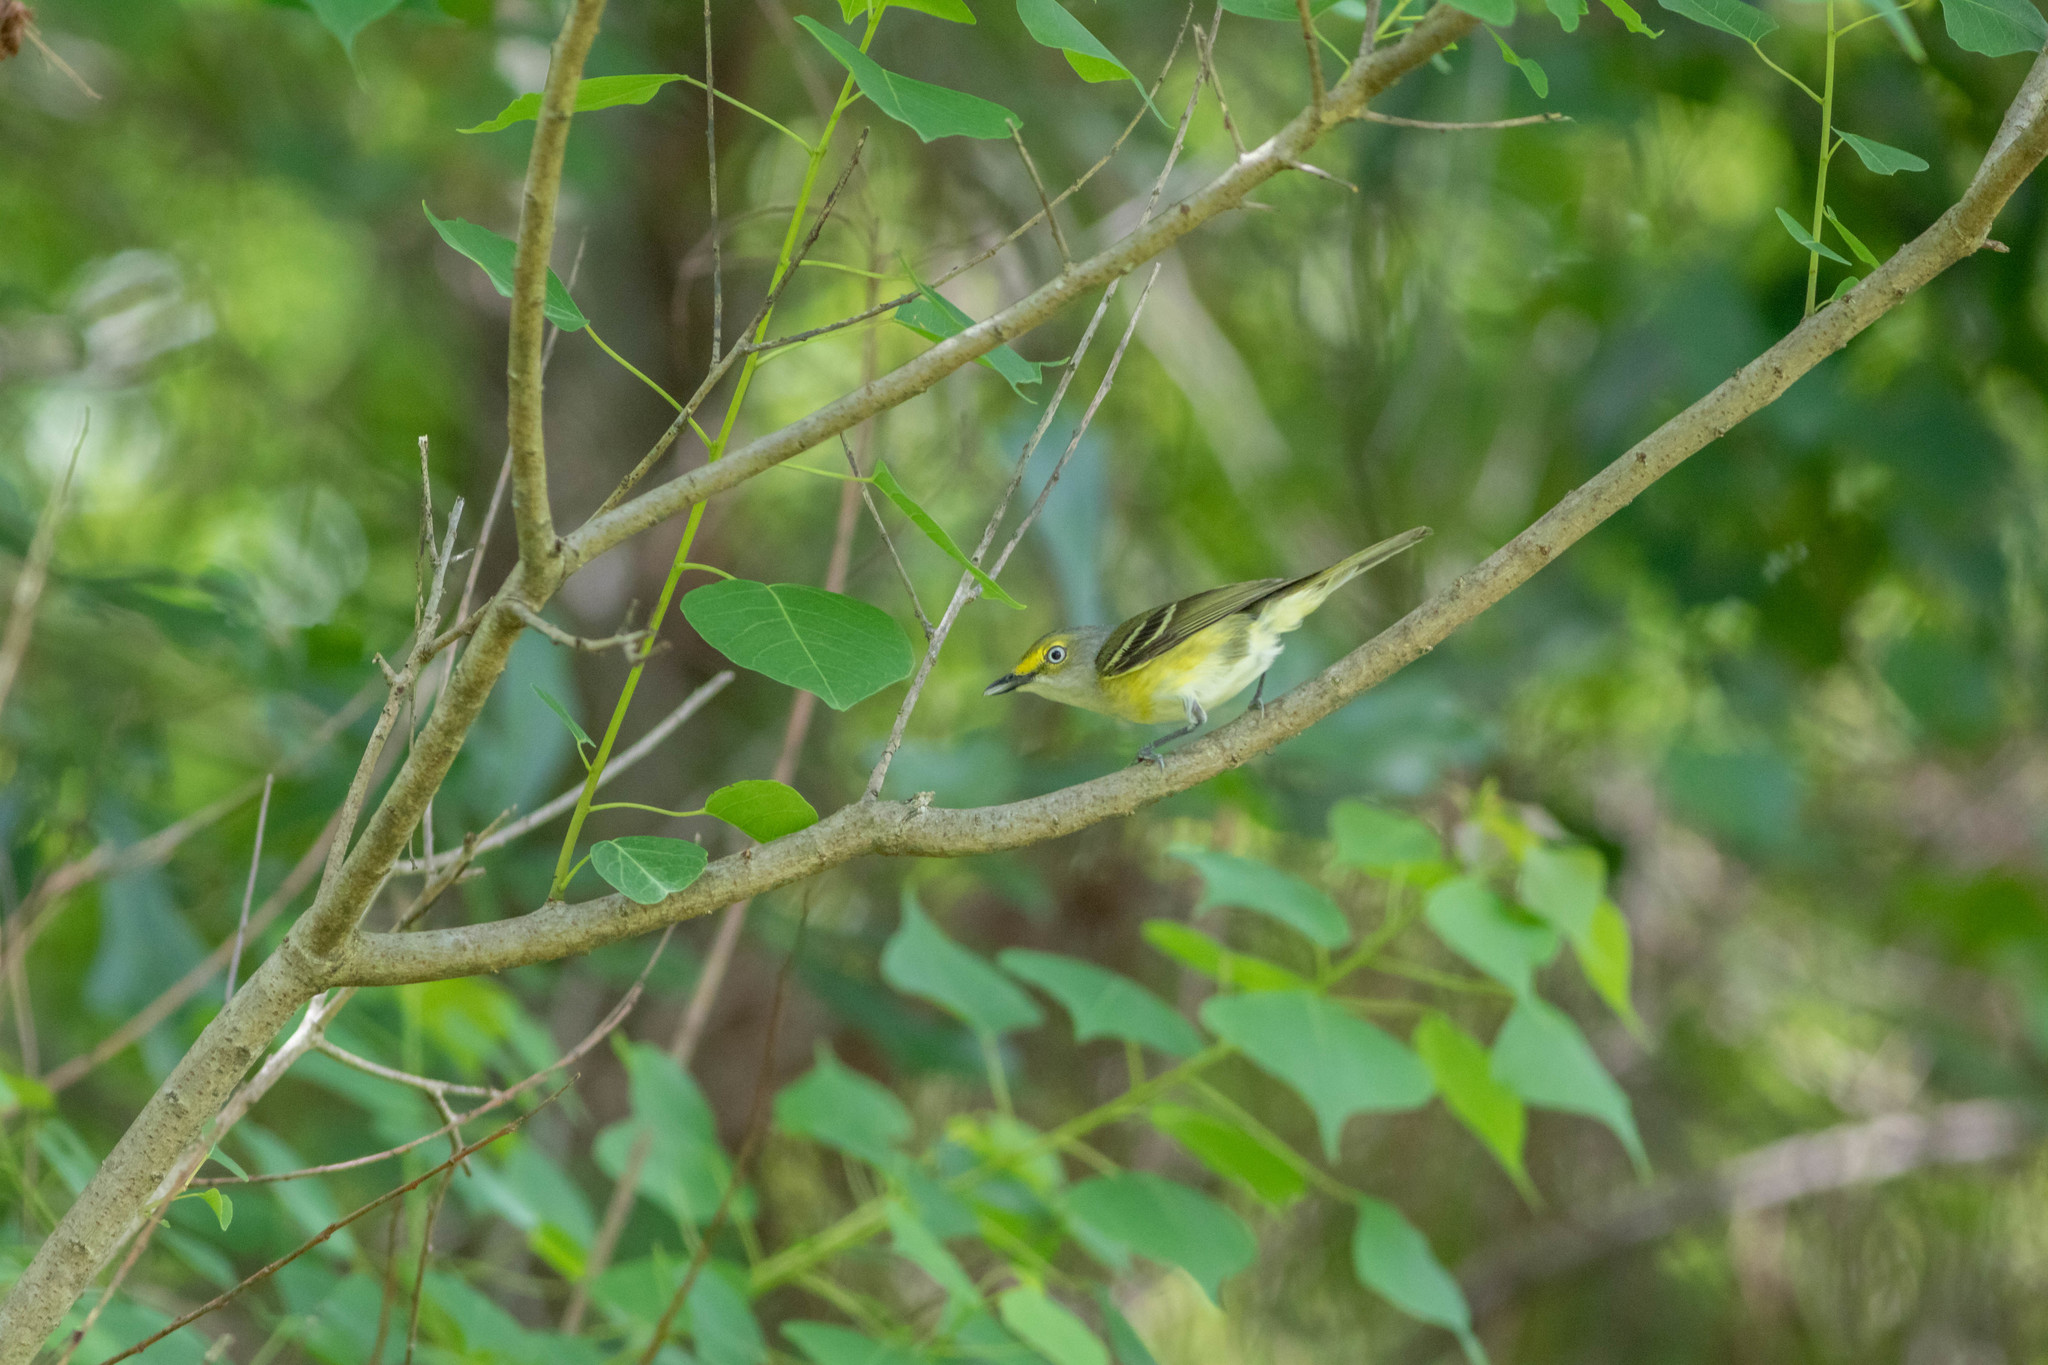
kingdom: Animalia
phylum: Chordata
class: Aves
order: Passeriformes
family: Vireonidae
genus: Vireo
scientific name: Vireo griseus
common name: White-eyed vireo
